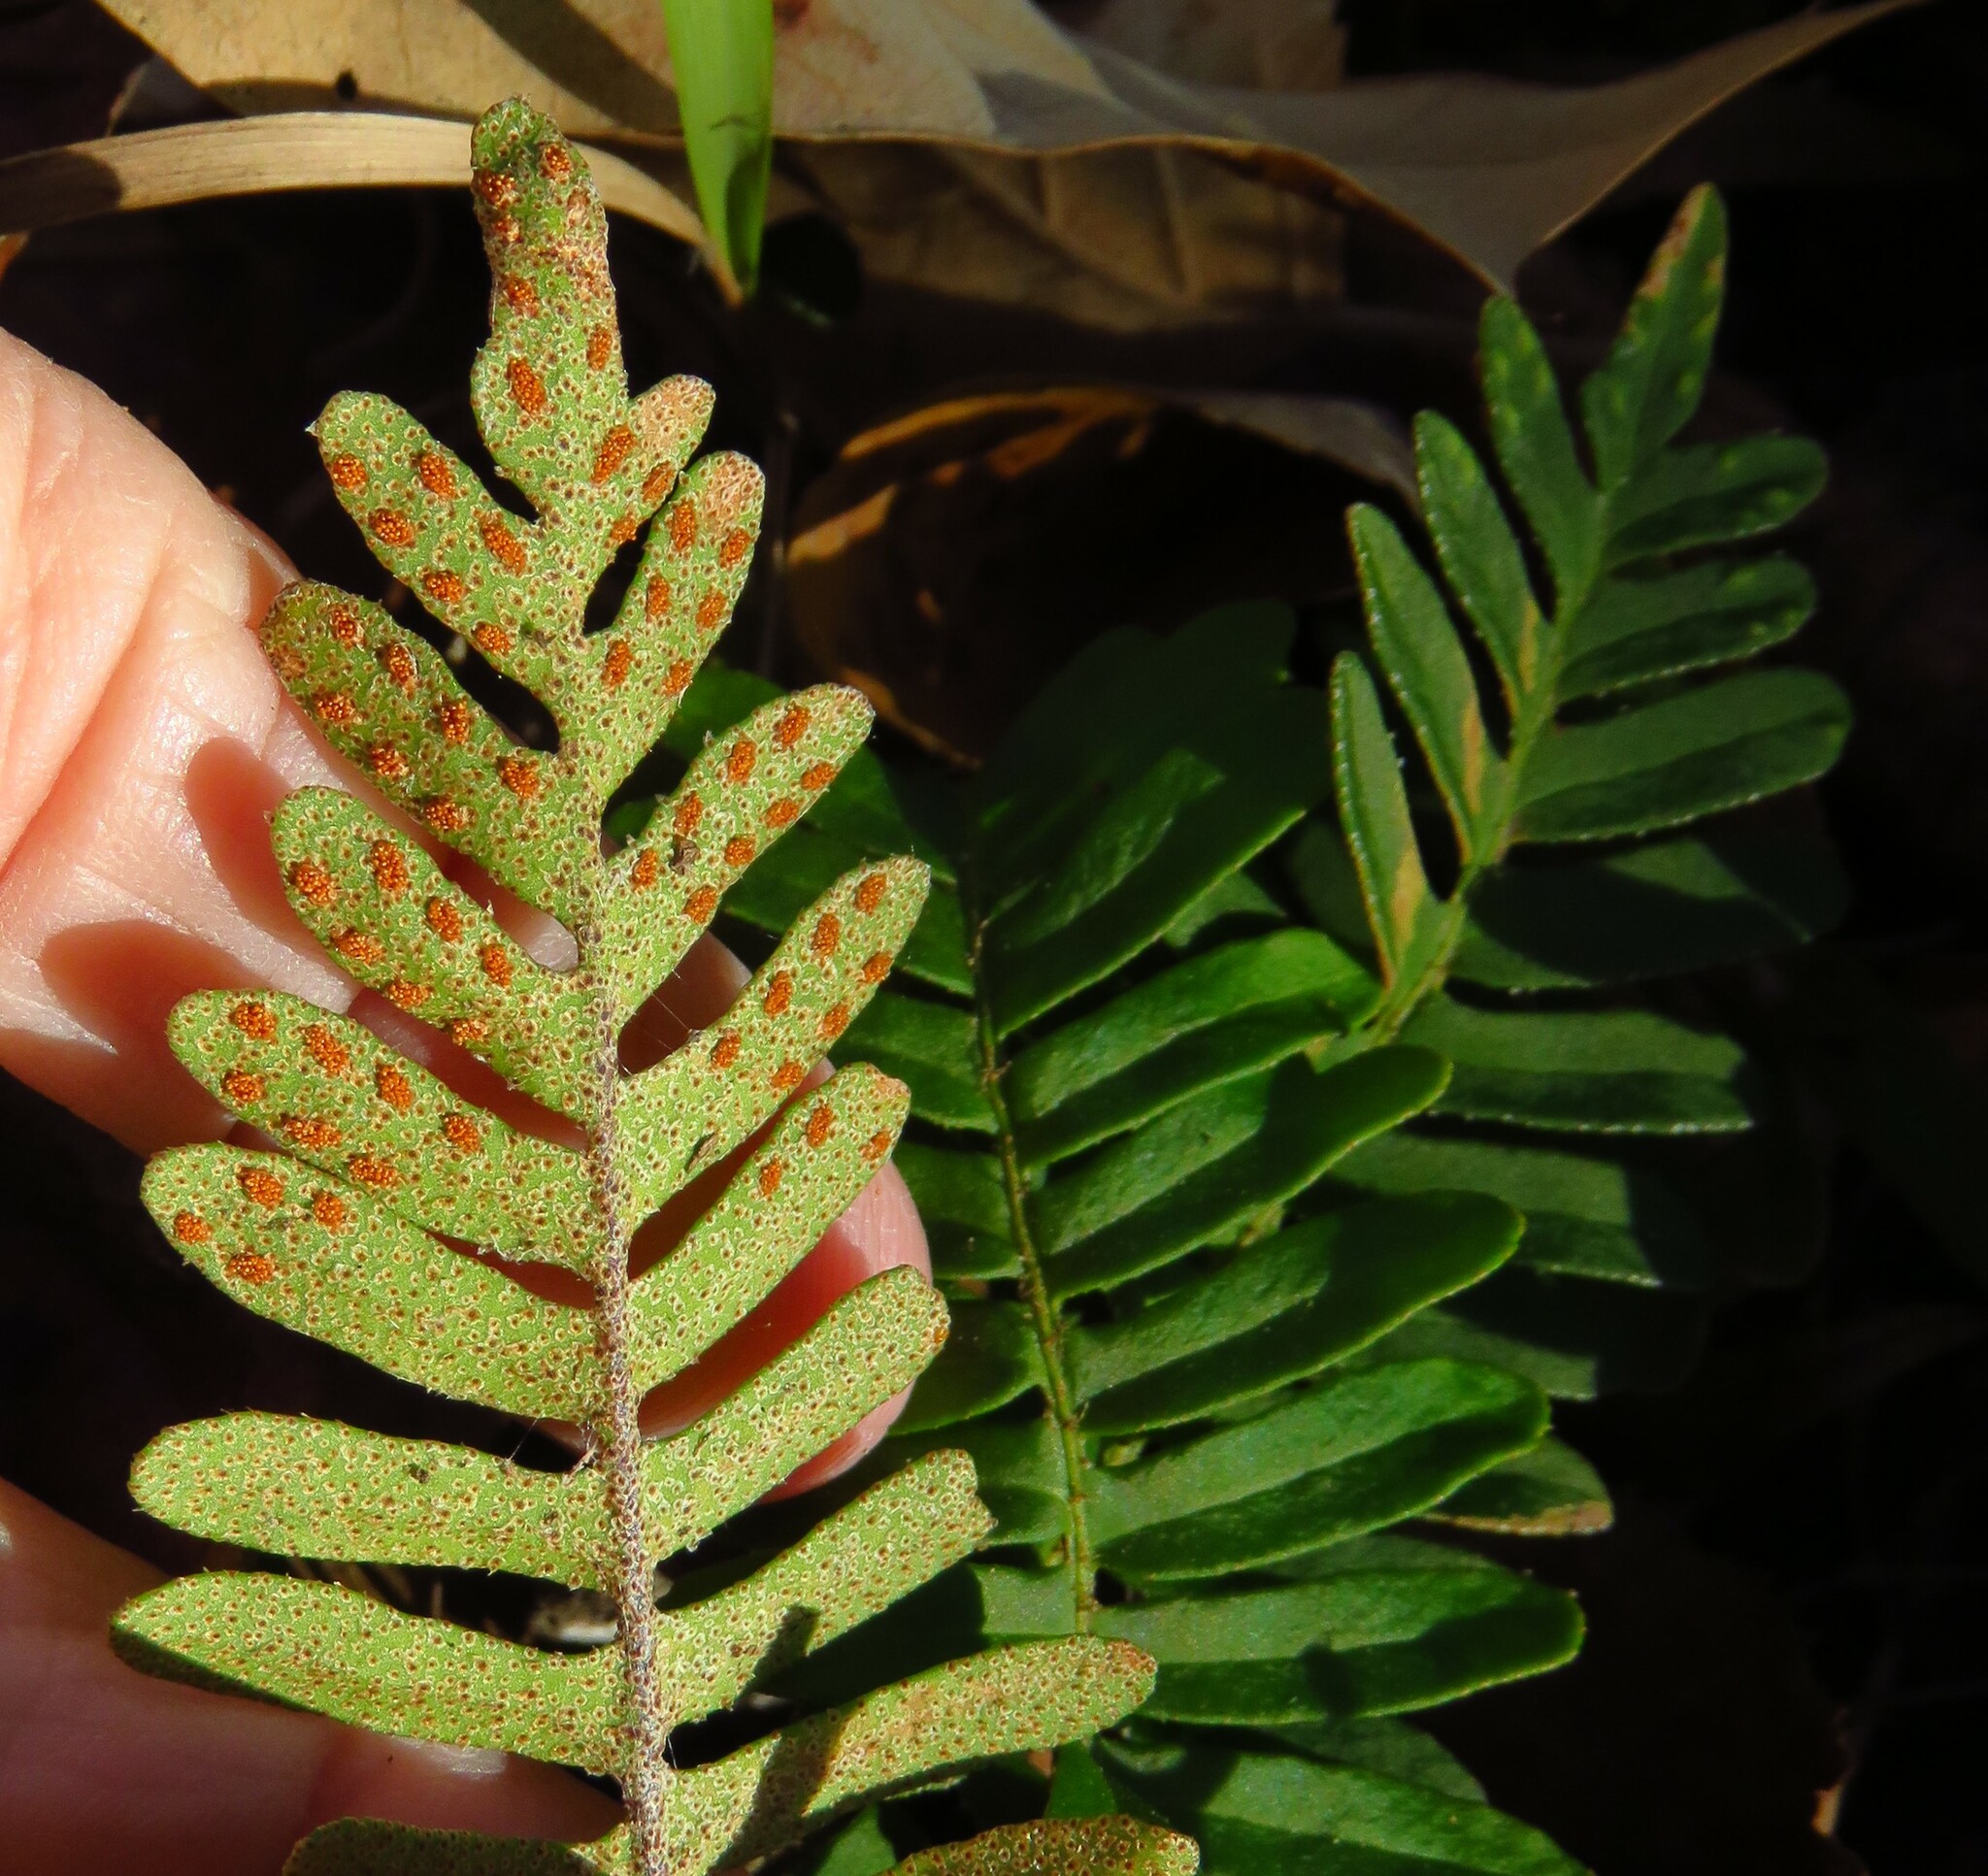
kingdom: Plantae
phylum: Tracheophyta
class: Polypodiopsida
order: Polypodiales
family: Polypodiaceae
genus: Pleopeltis
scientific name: Pleopeltis michauxiana
